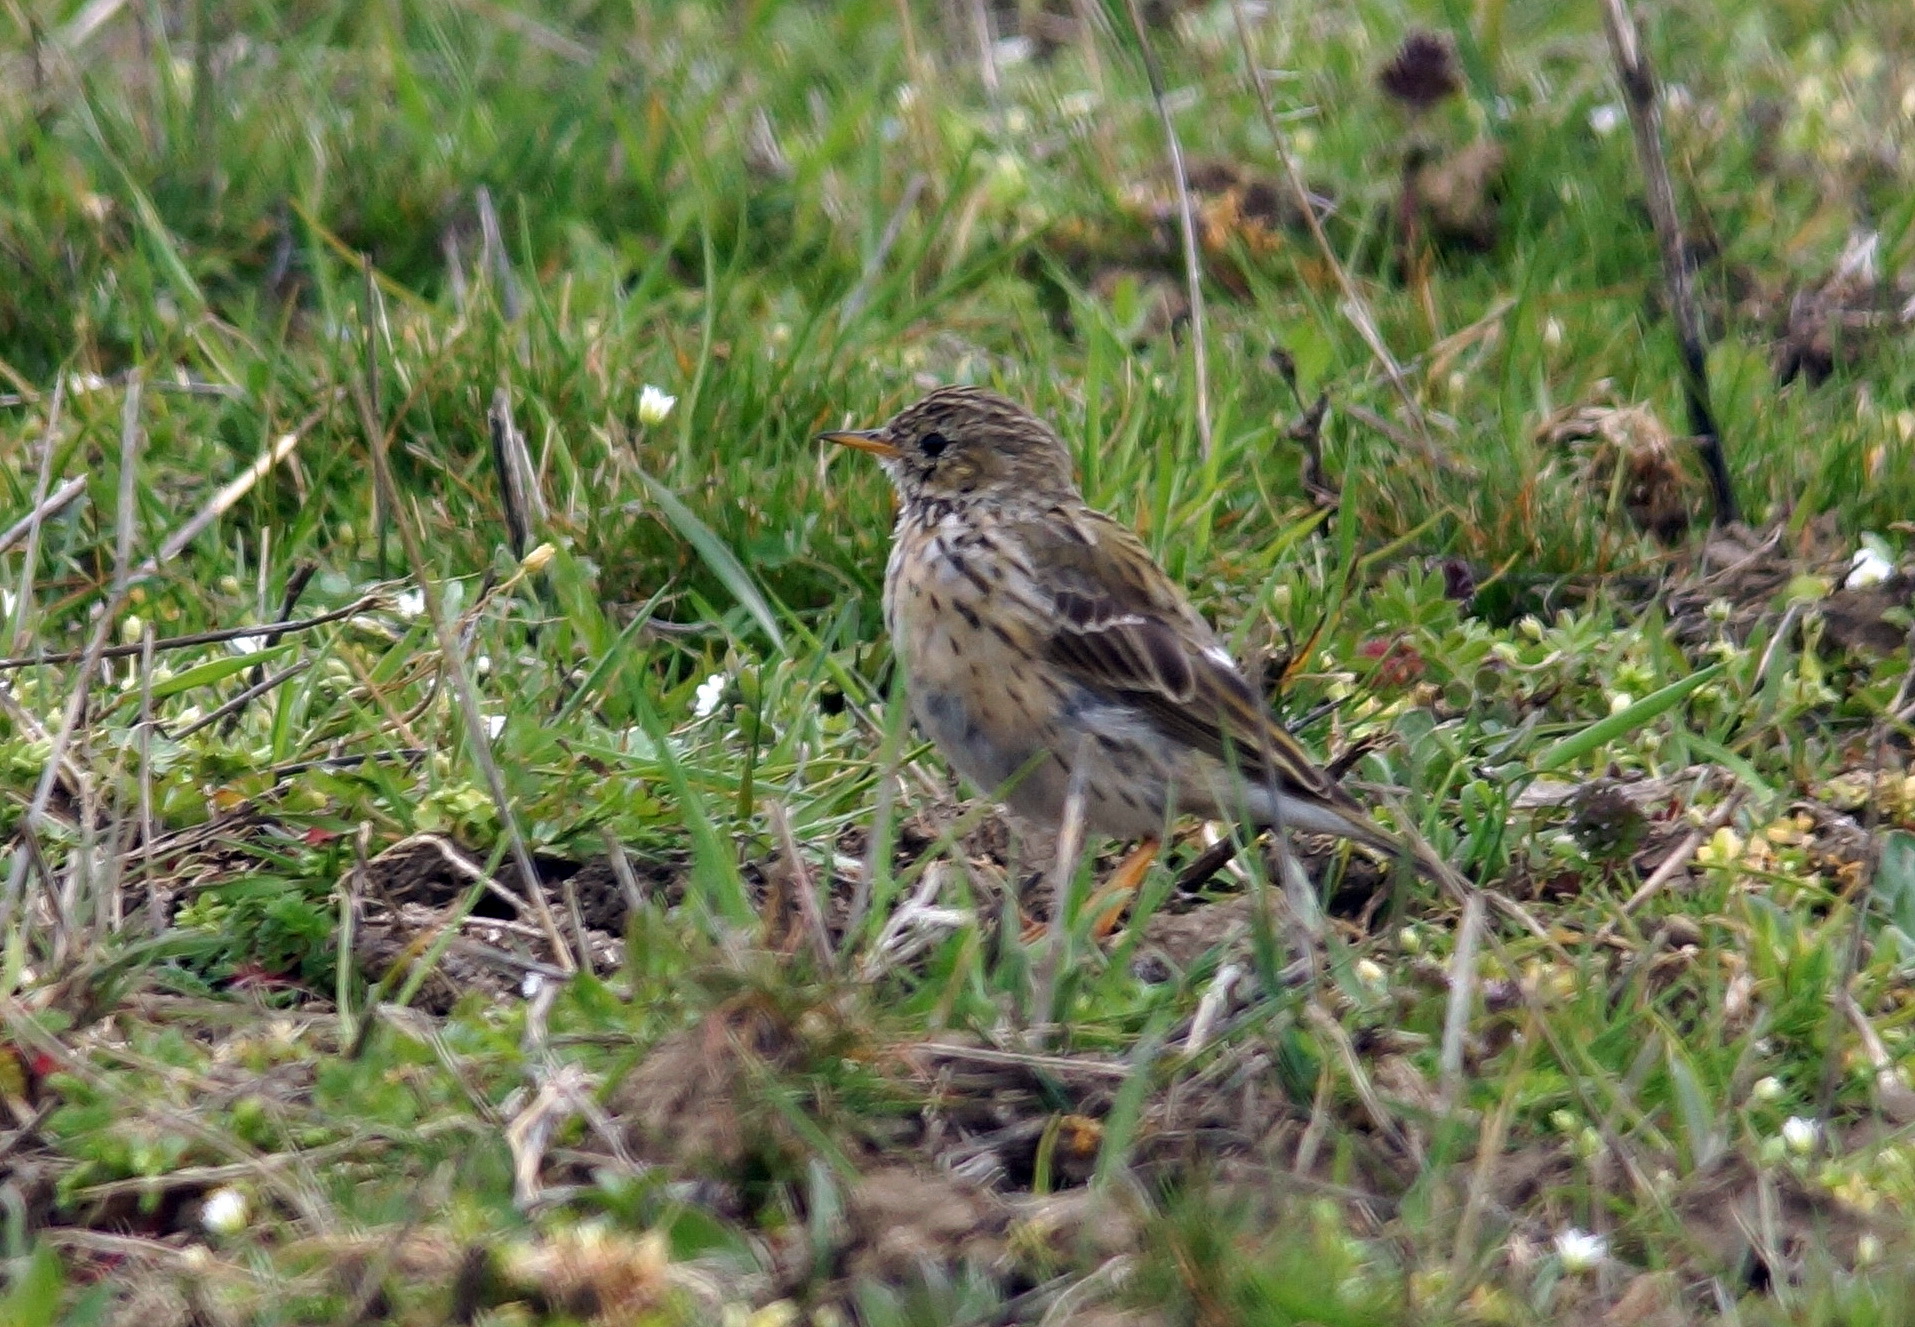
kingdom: Animalia
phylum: Chordata
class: Aves
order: Passeriformes
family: Motacillidae
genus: Anthus
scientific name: Anthus pratensis
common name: Meadow pipit
